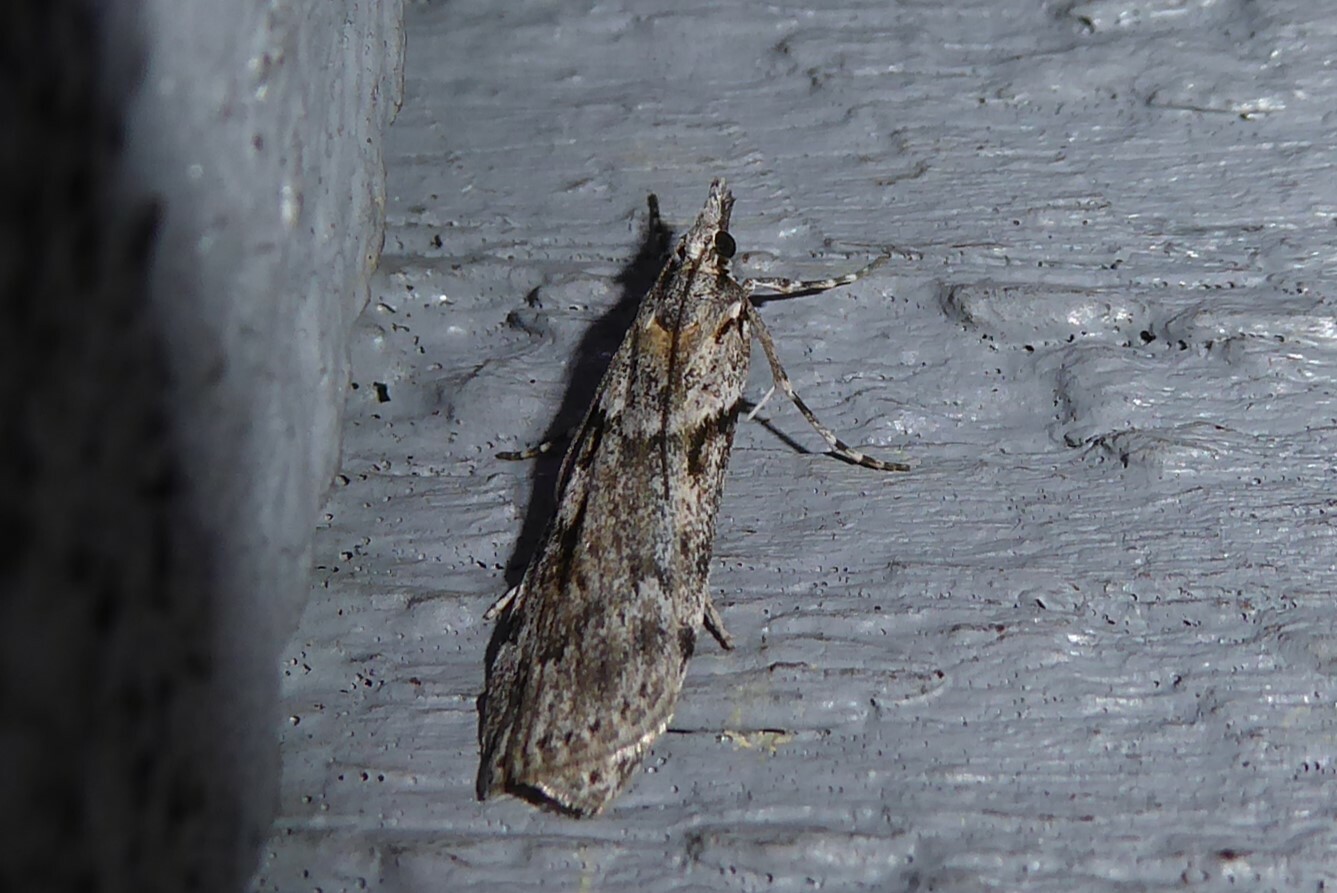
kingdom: Animalia
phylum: Arthropoda
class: Insecta
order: Lepidoptera
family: Crambidae
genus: Scoparia
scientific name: Scoparia halopis
